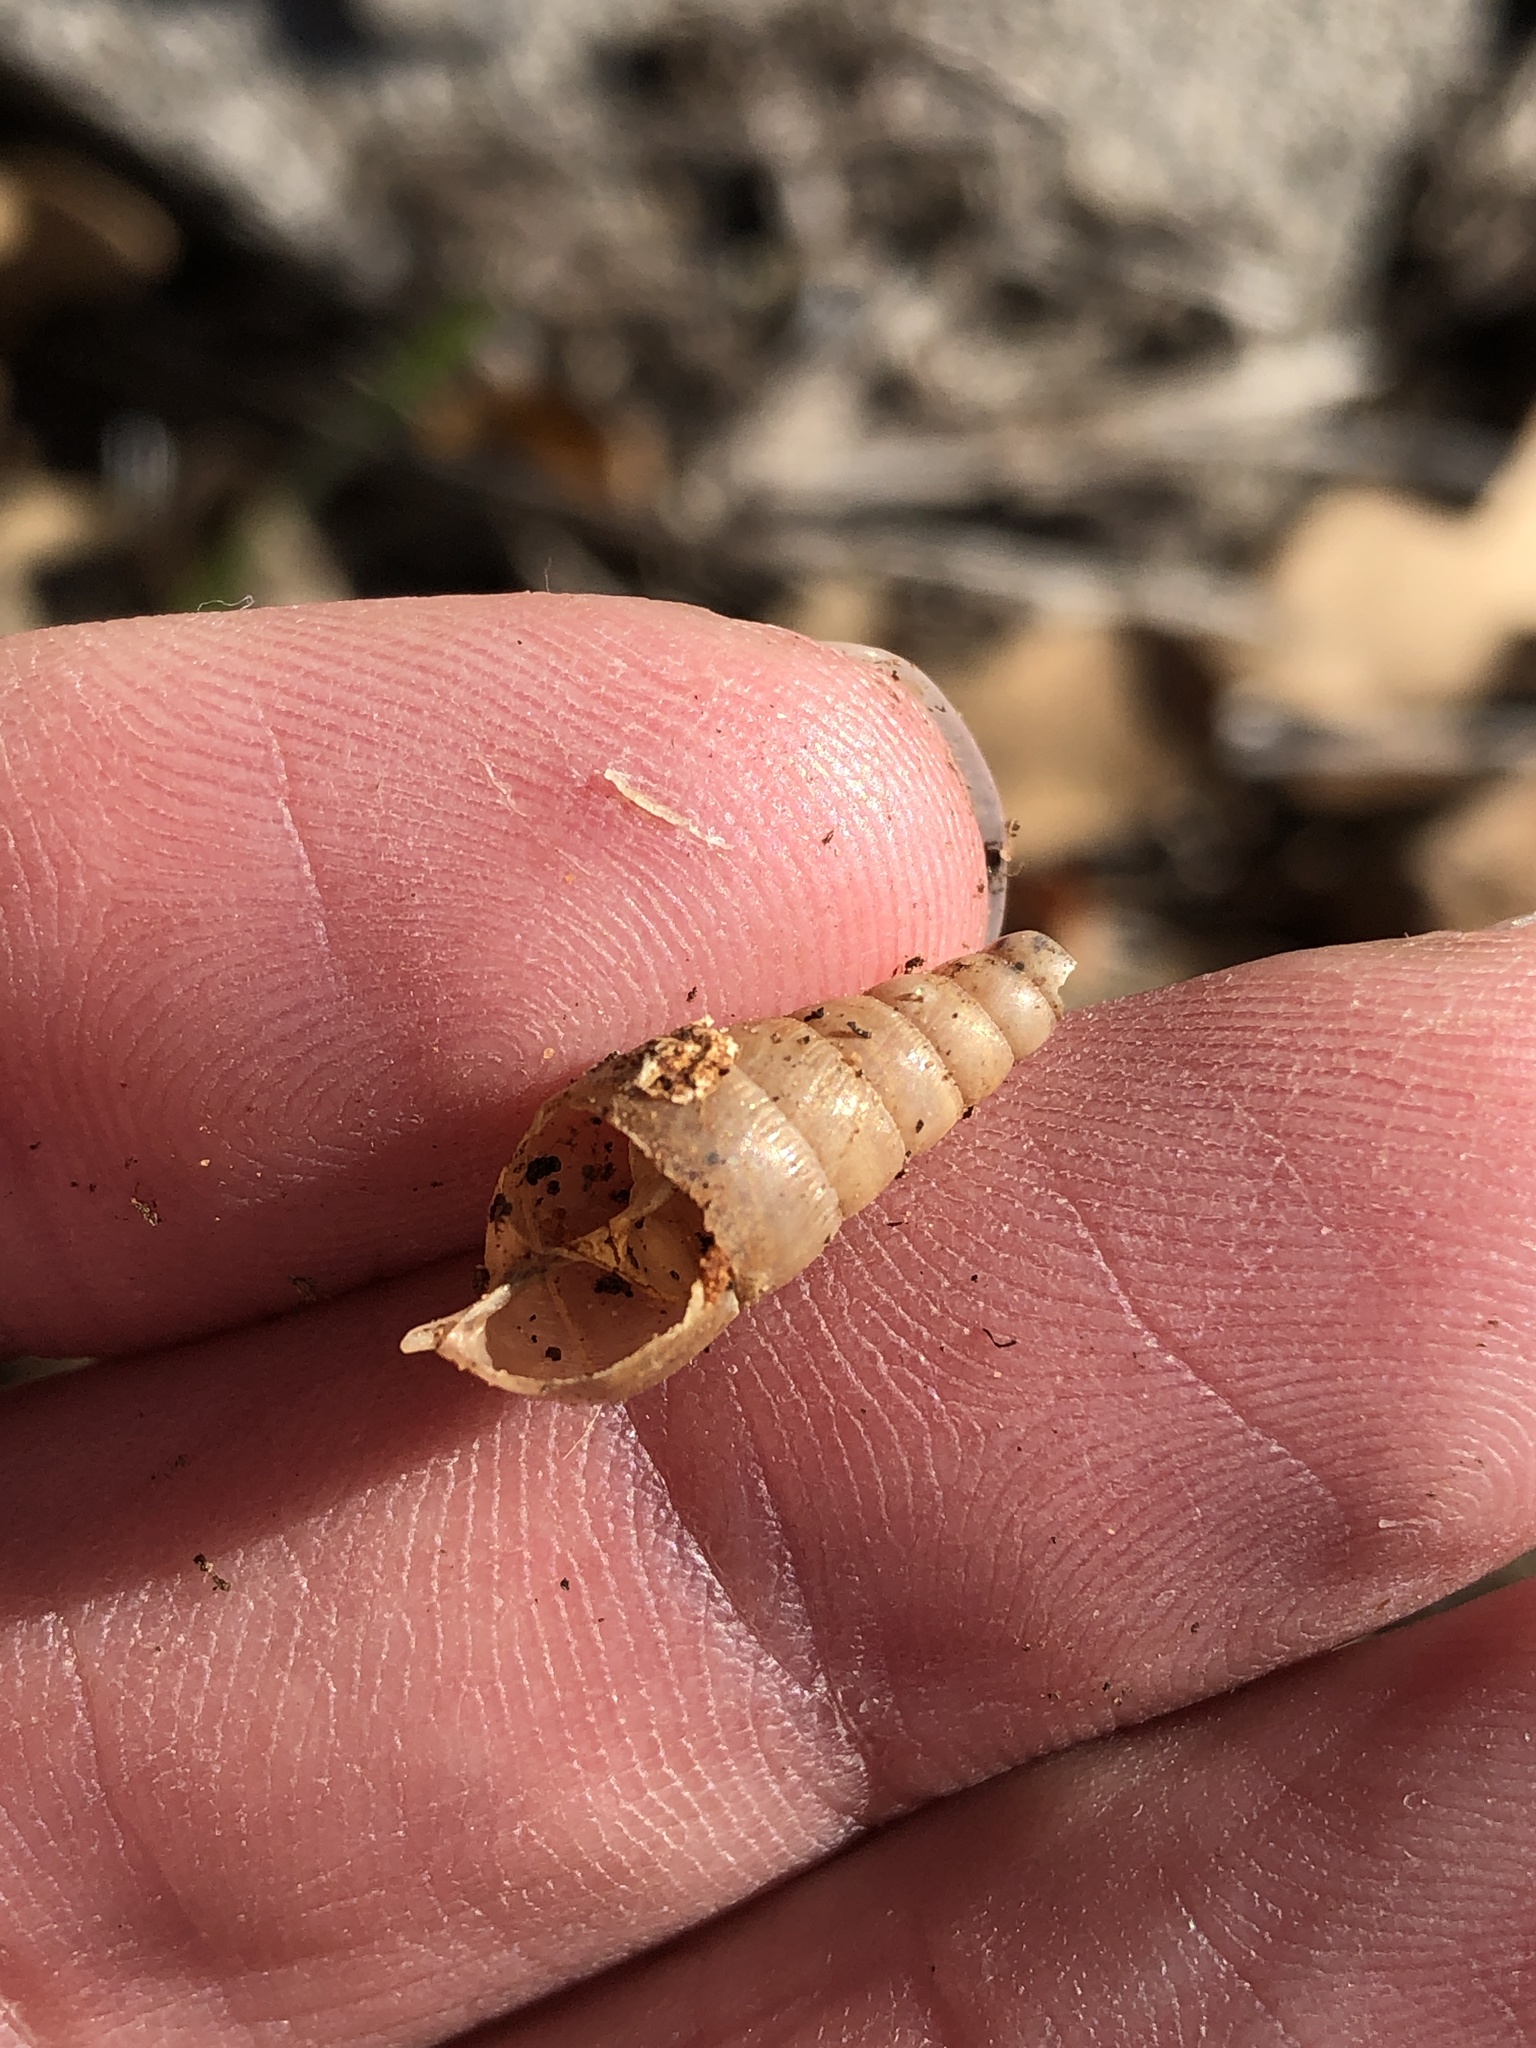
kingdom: Animalia
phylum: Mollusca
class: Gastropoda
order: Stylommatophora
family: Achatinidae
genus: Rumina
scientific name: Rumina decollata
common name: Decollate snail
